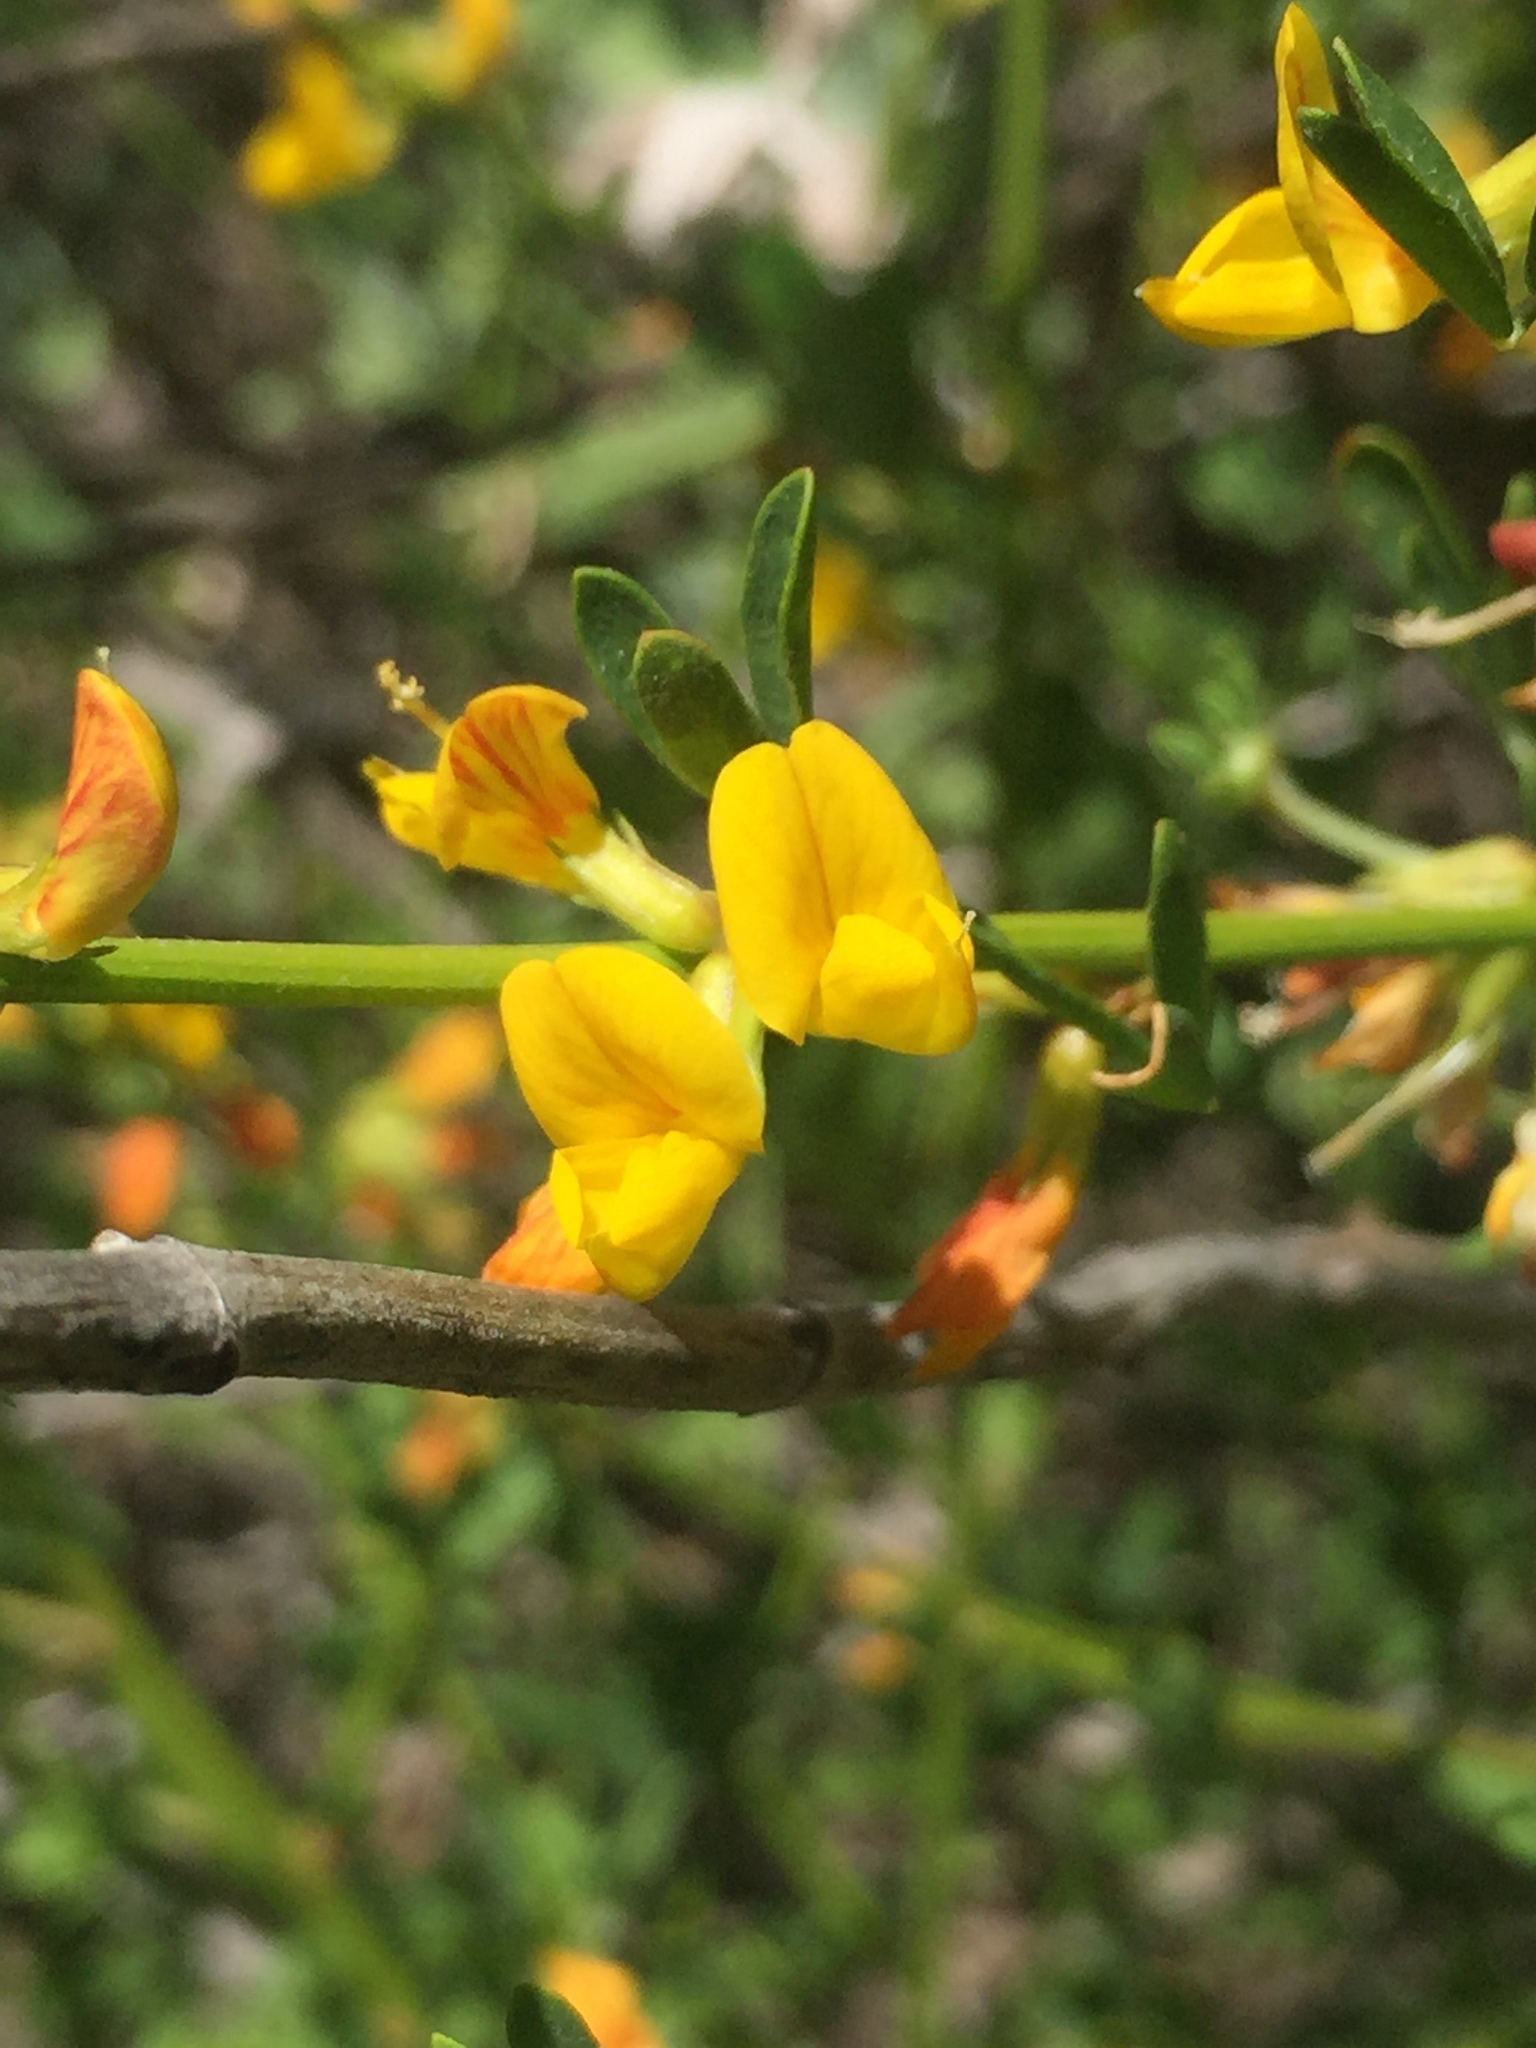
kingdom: Plantae
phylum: Tracheophyta
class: Magnoliopsida
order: Fabales
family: Fabaceae
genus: Acmispon
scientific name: Acmispon glaber
